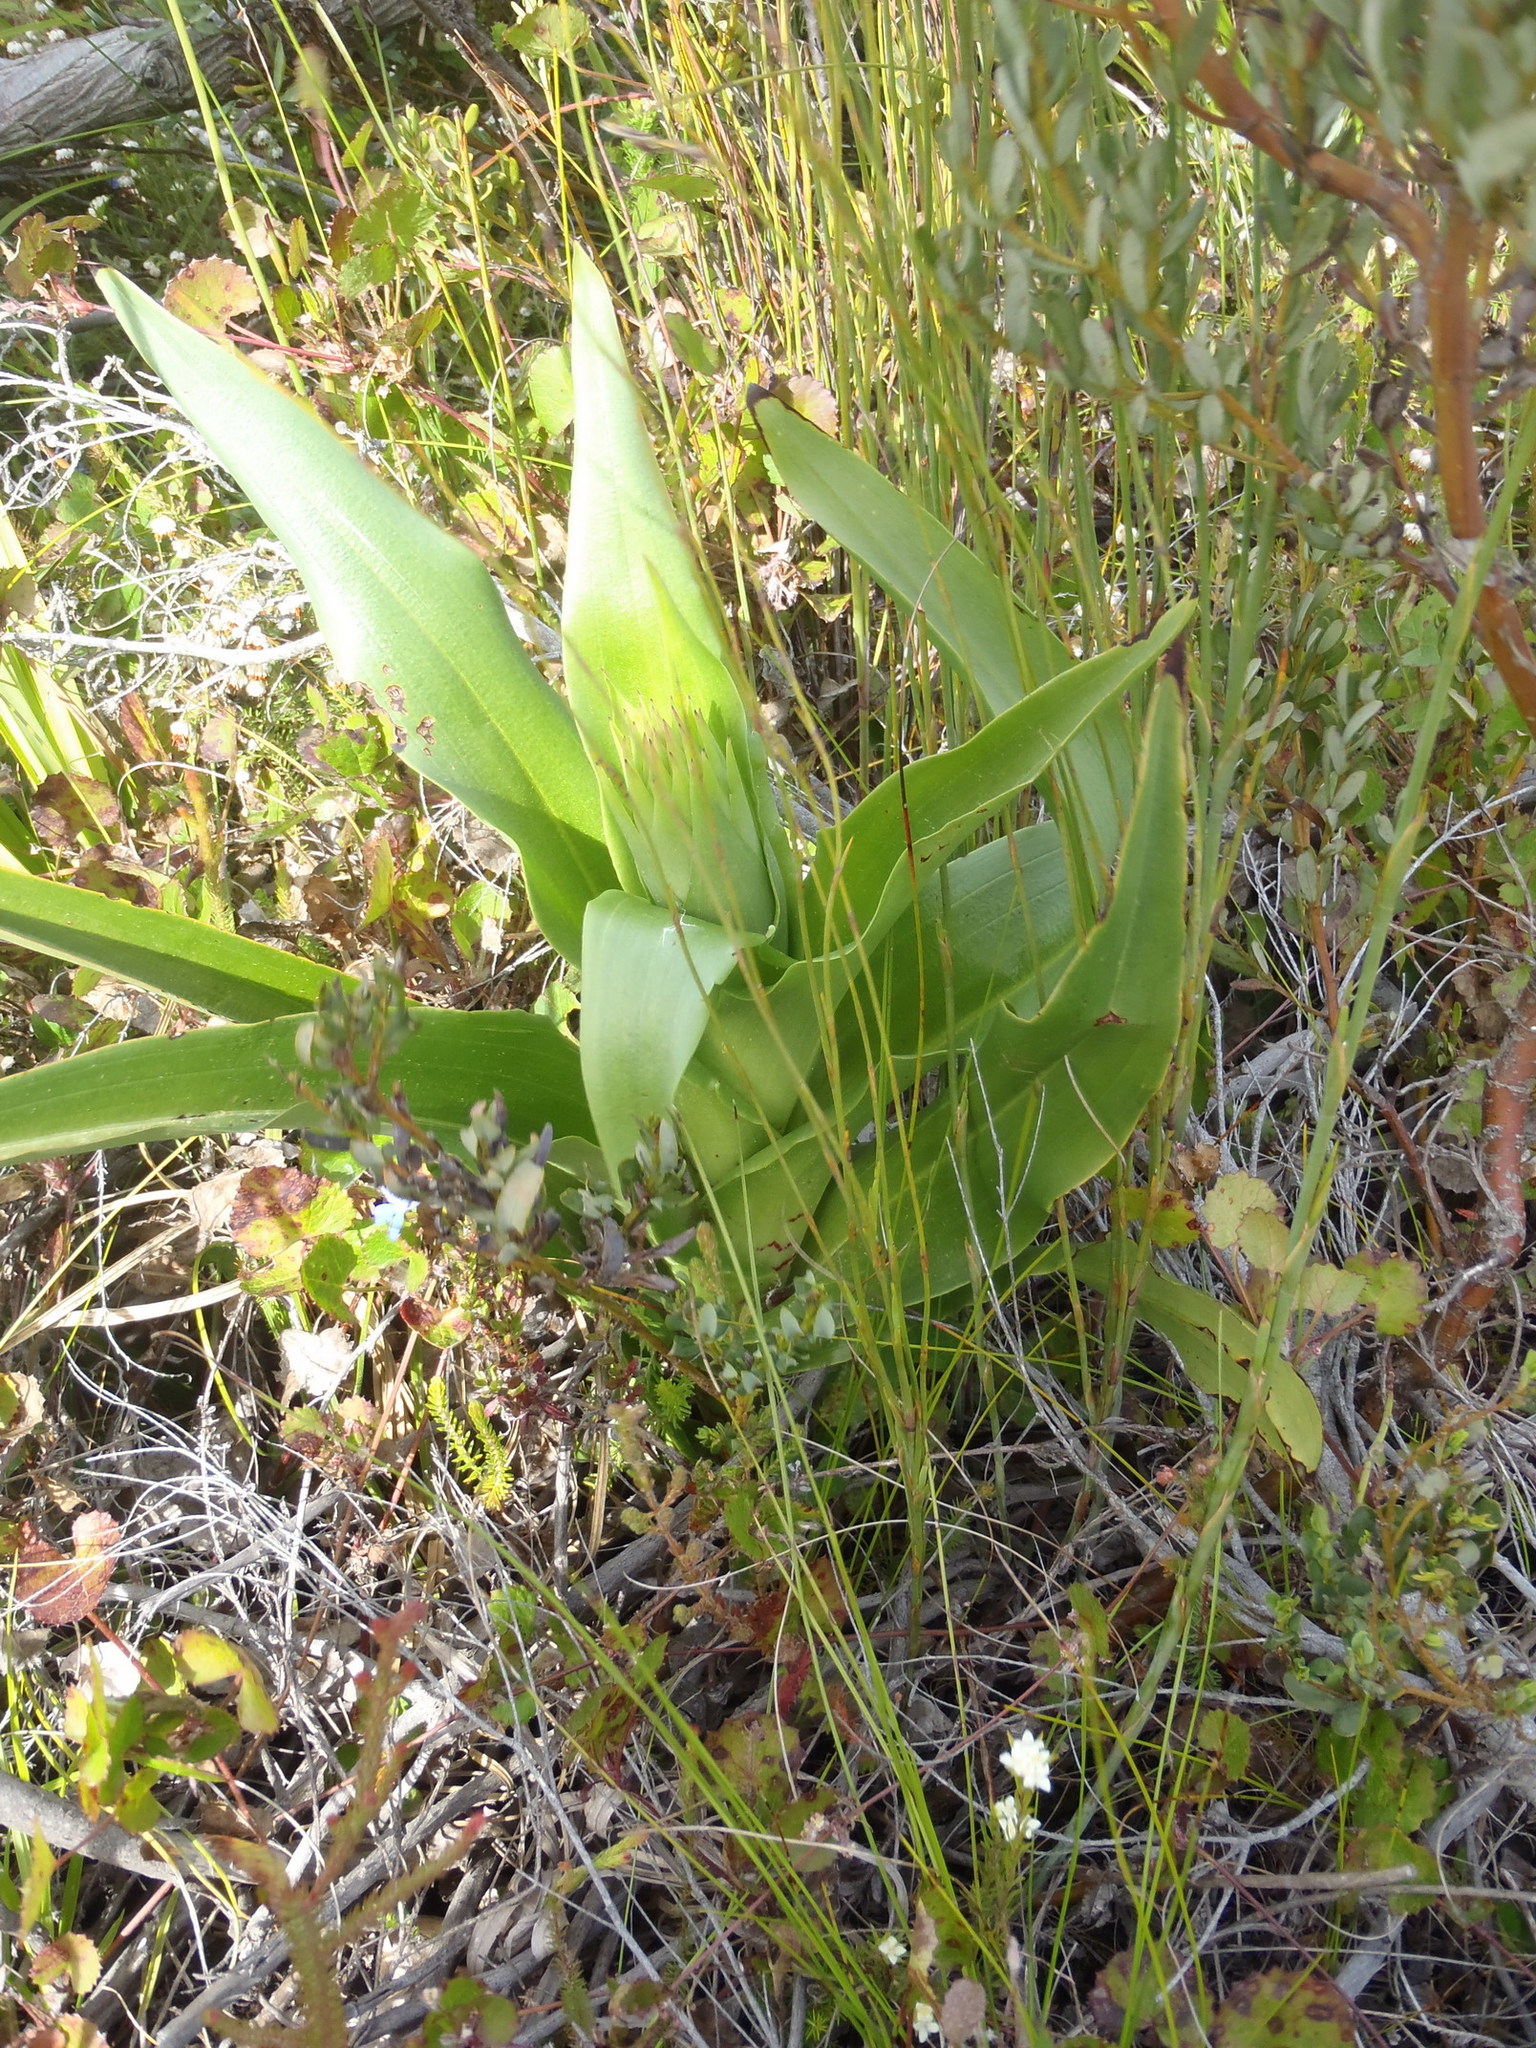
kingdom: Plantae
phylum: Tracheophyta
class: Liliopsida
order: Asparagales
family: Orchidaceae
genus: Disa
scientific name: Disa cornuta
